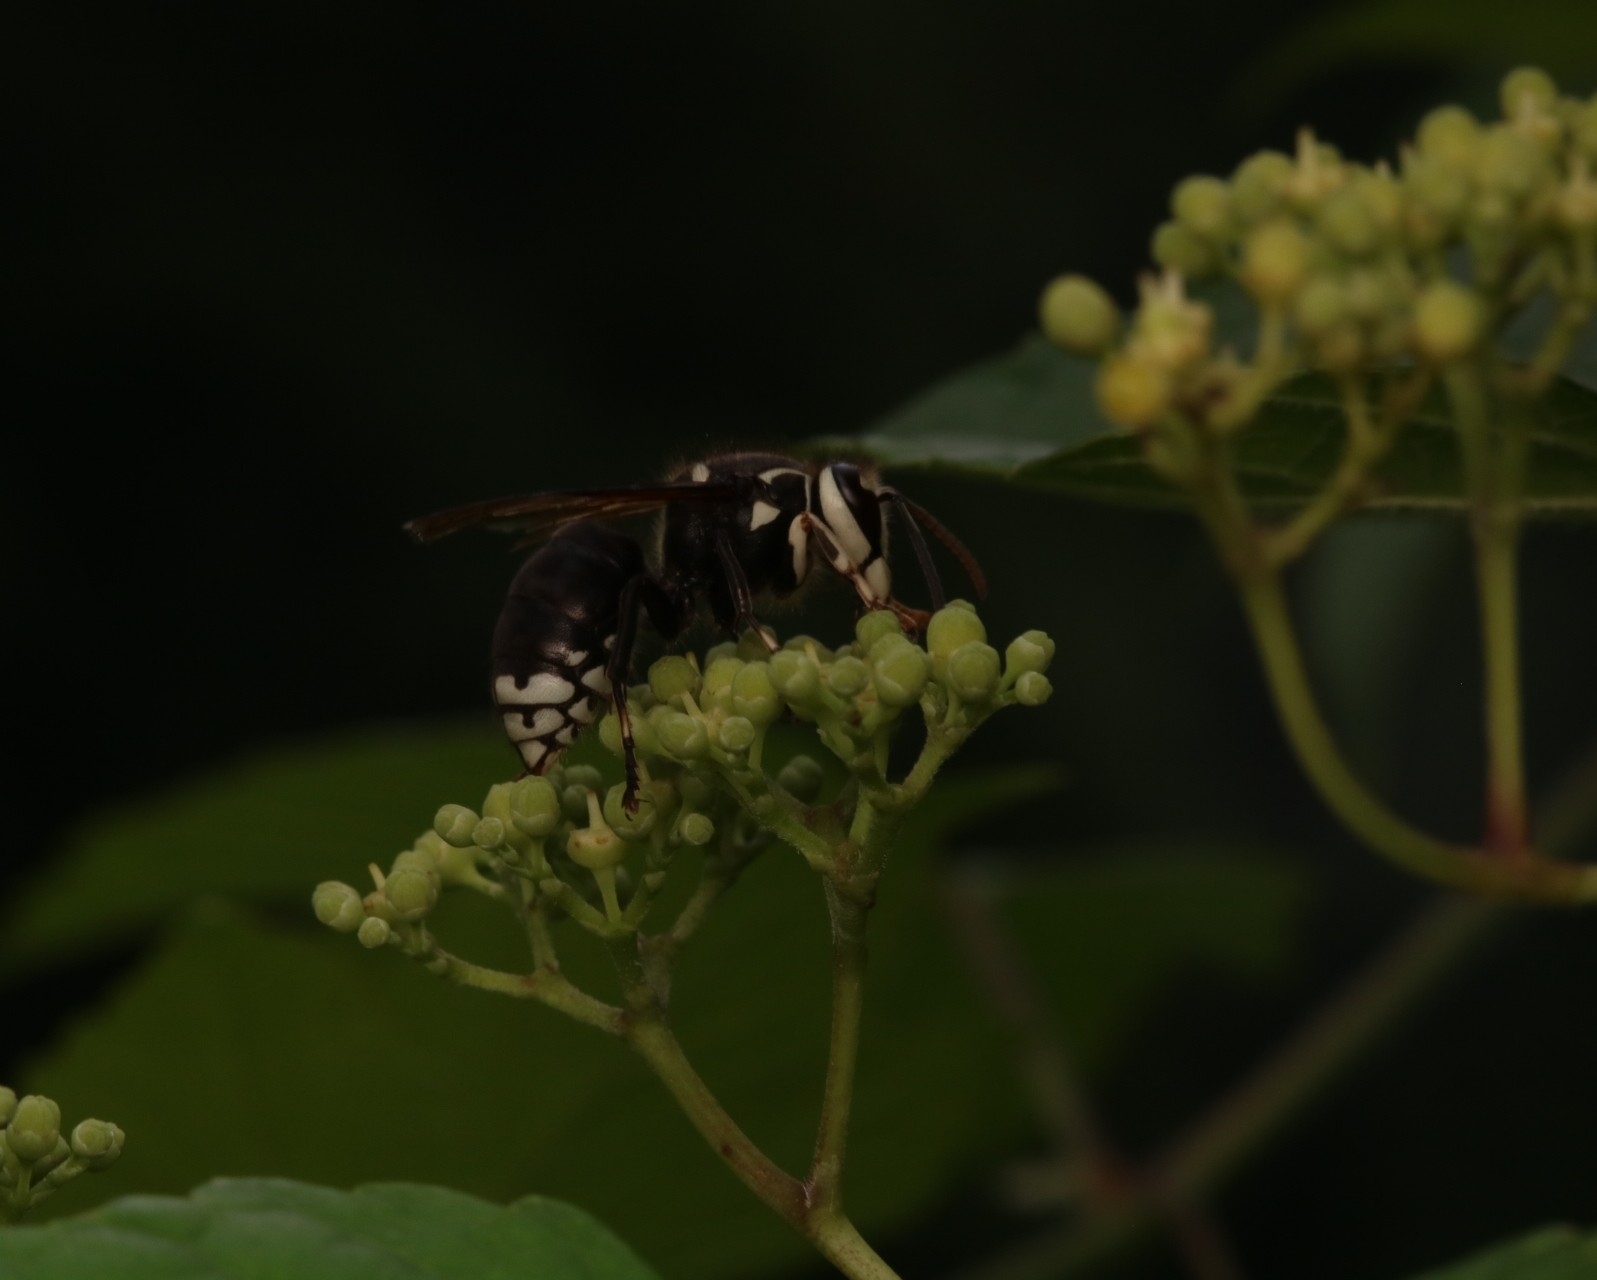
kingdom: Animalia
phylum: Arthropoda
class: Insecta
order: Hymenoptera
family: Vespidae
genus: Dolichovespula
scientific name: Dolichovespula maculata
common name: Bald-faced hornet
